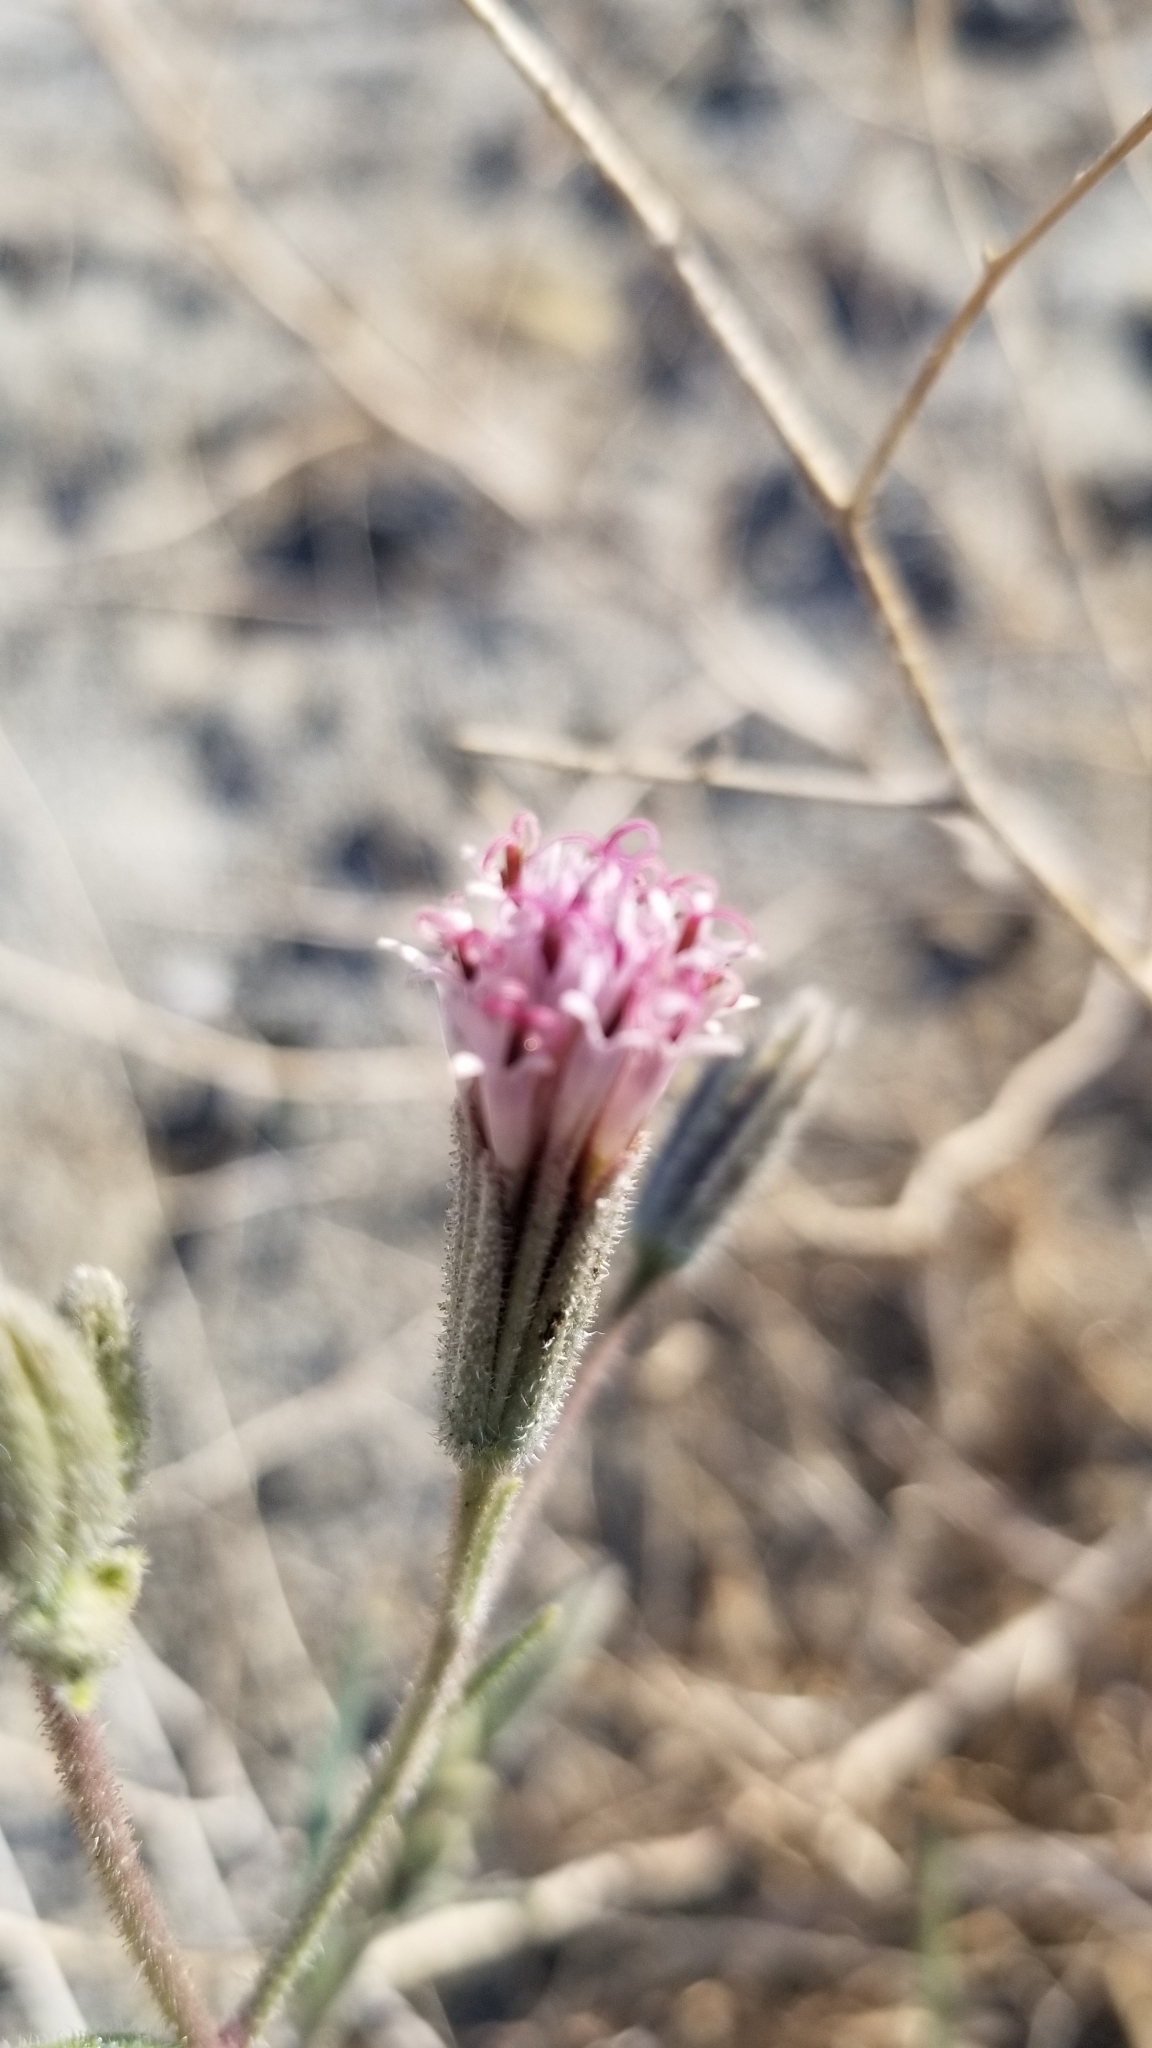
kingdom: Plantae
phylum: Tracheophyta
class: Magnoliopsida
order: Asterales
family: Asteraceae
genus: Palafoxia
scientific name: Palafoxia arida
